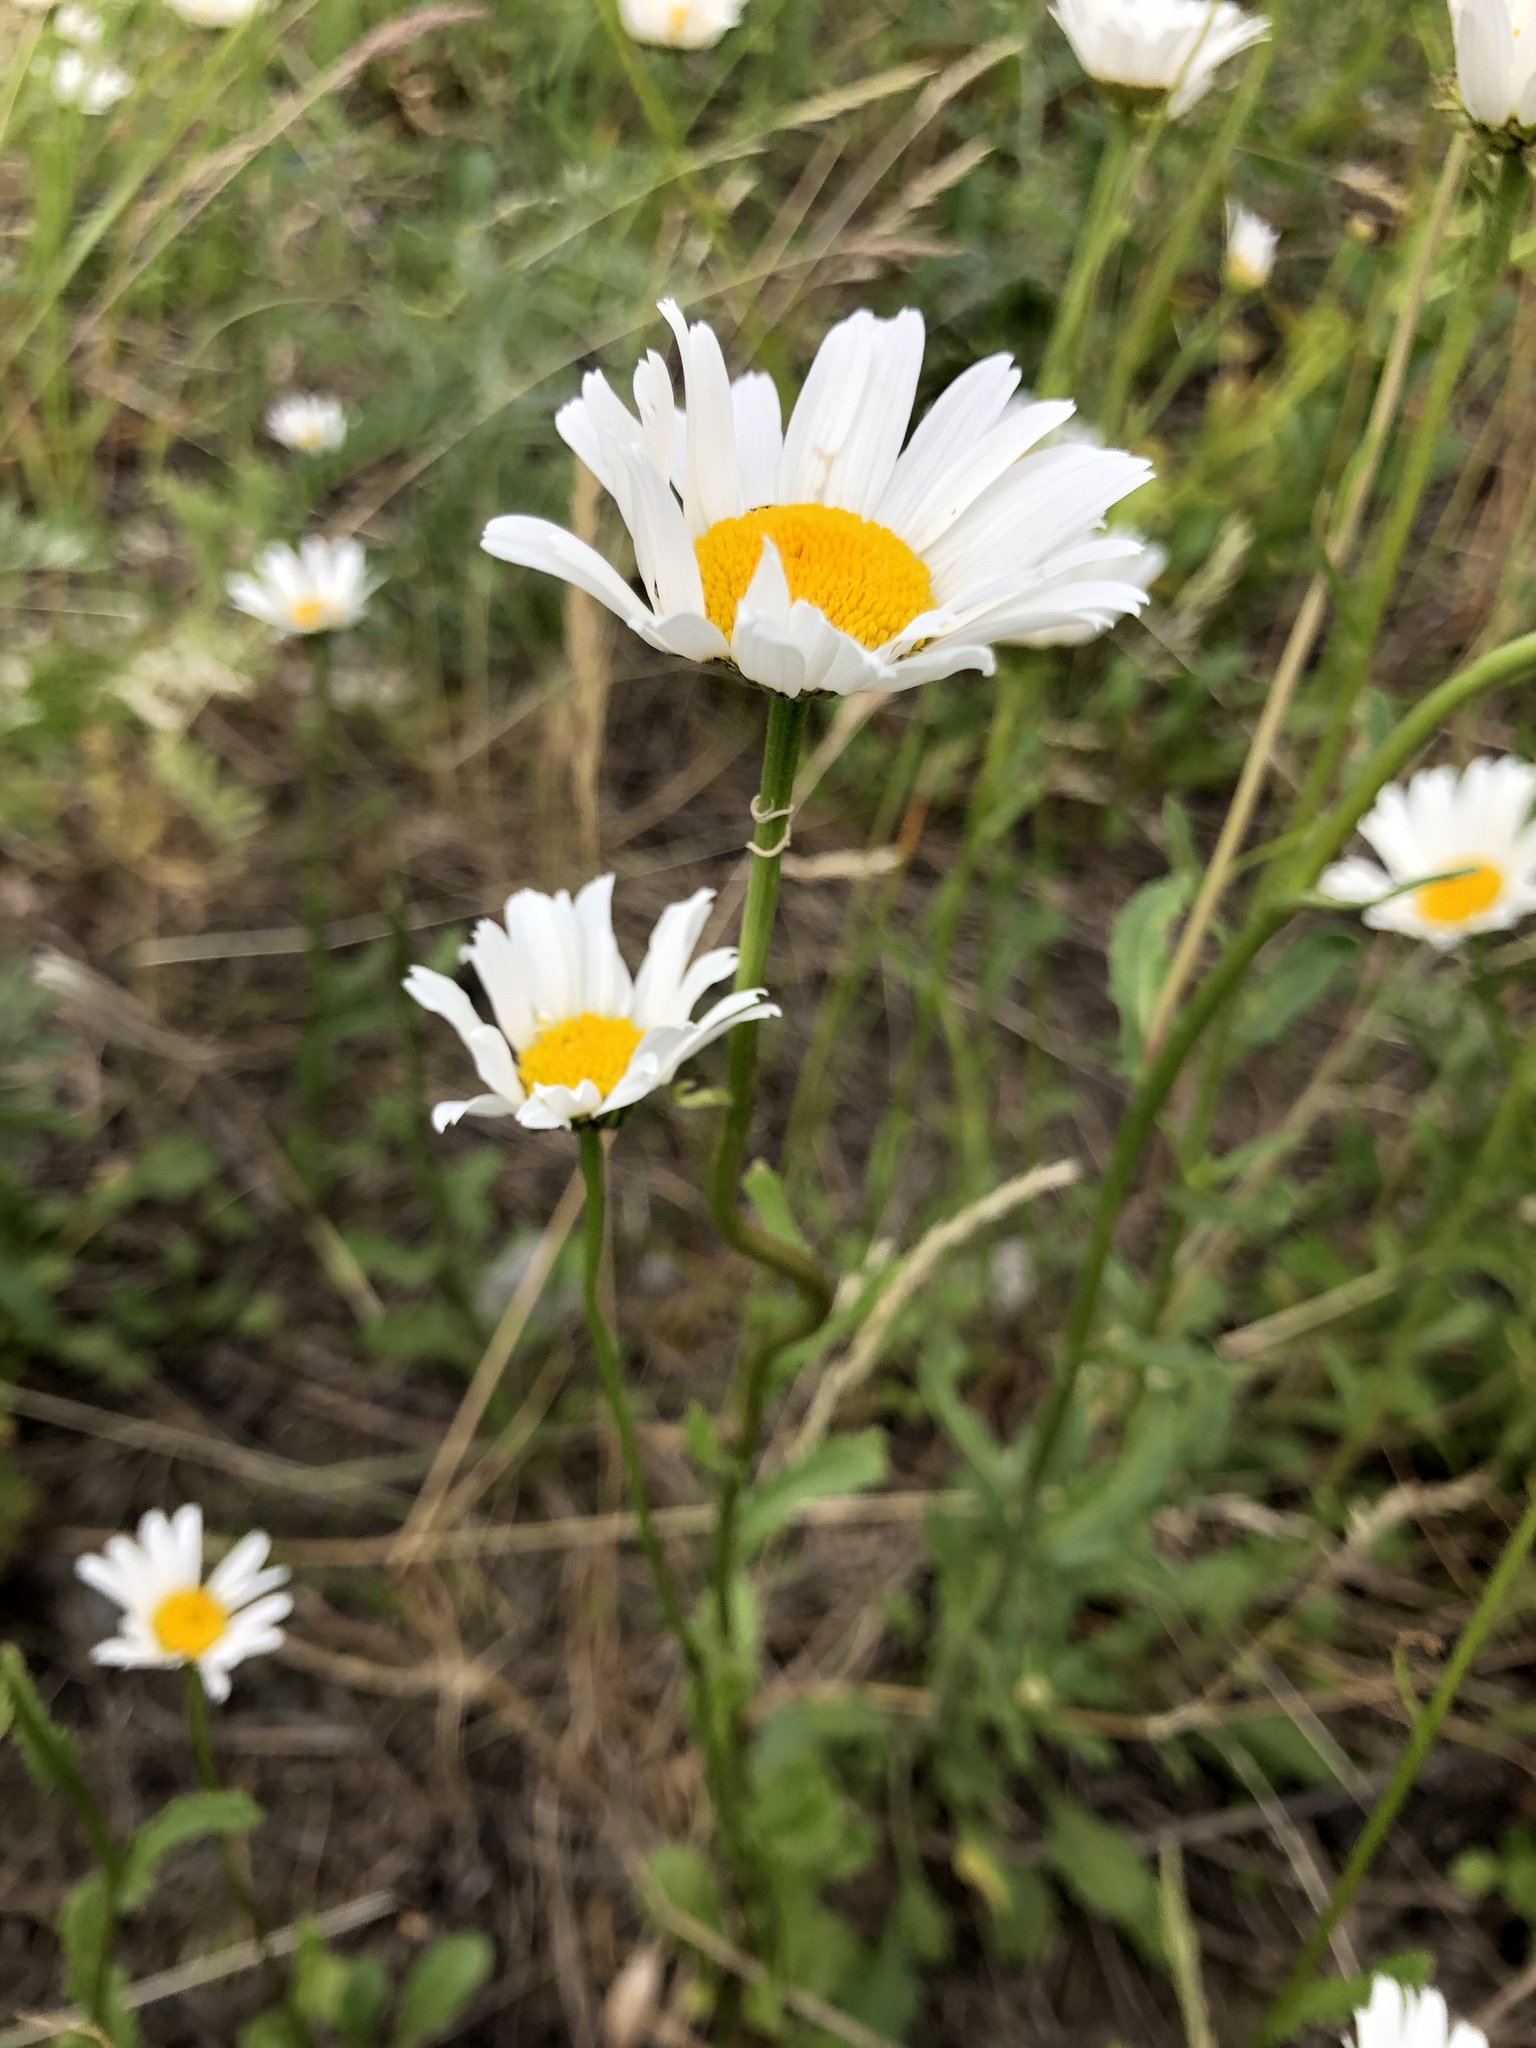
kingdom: Plantae
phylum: Tracheophyta
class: Magnoliopsida
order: Asterales
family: Asteraceae
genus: Leucanthemum
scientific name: Leucanthemum vulgare
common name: Oxeye daisy
